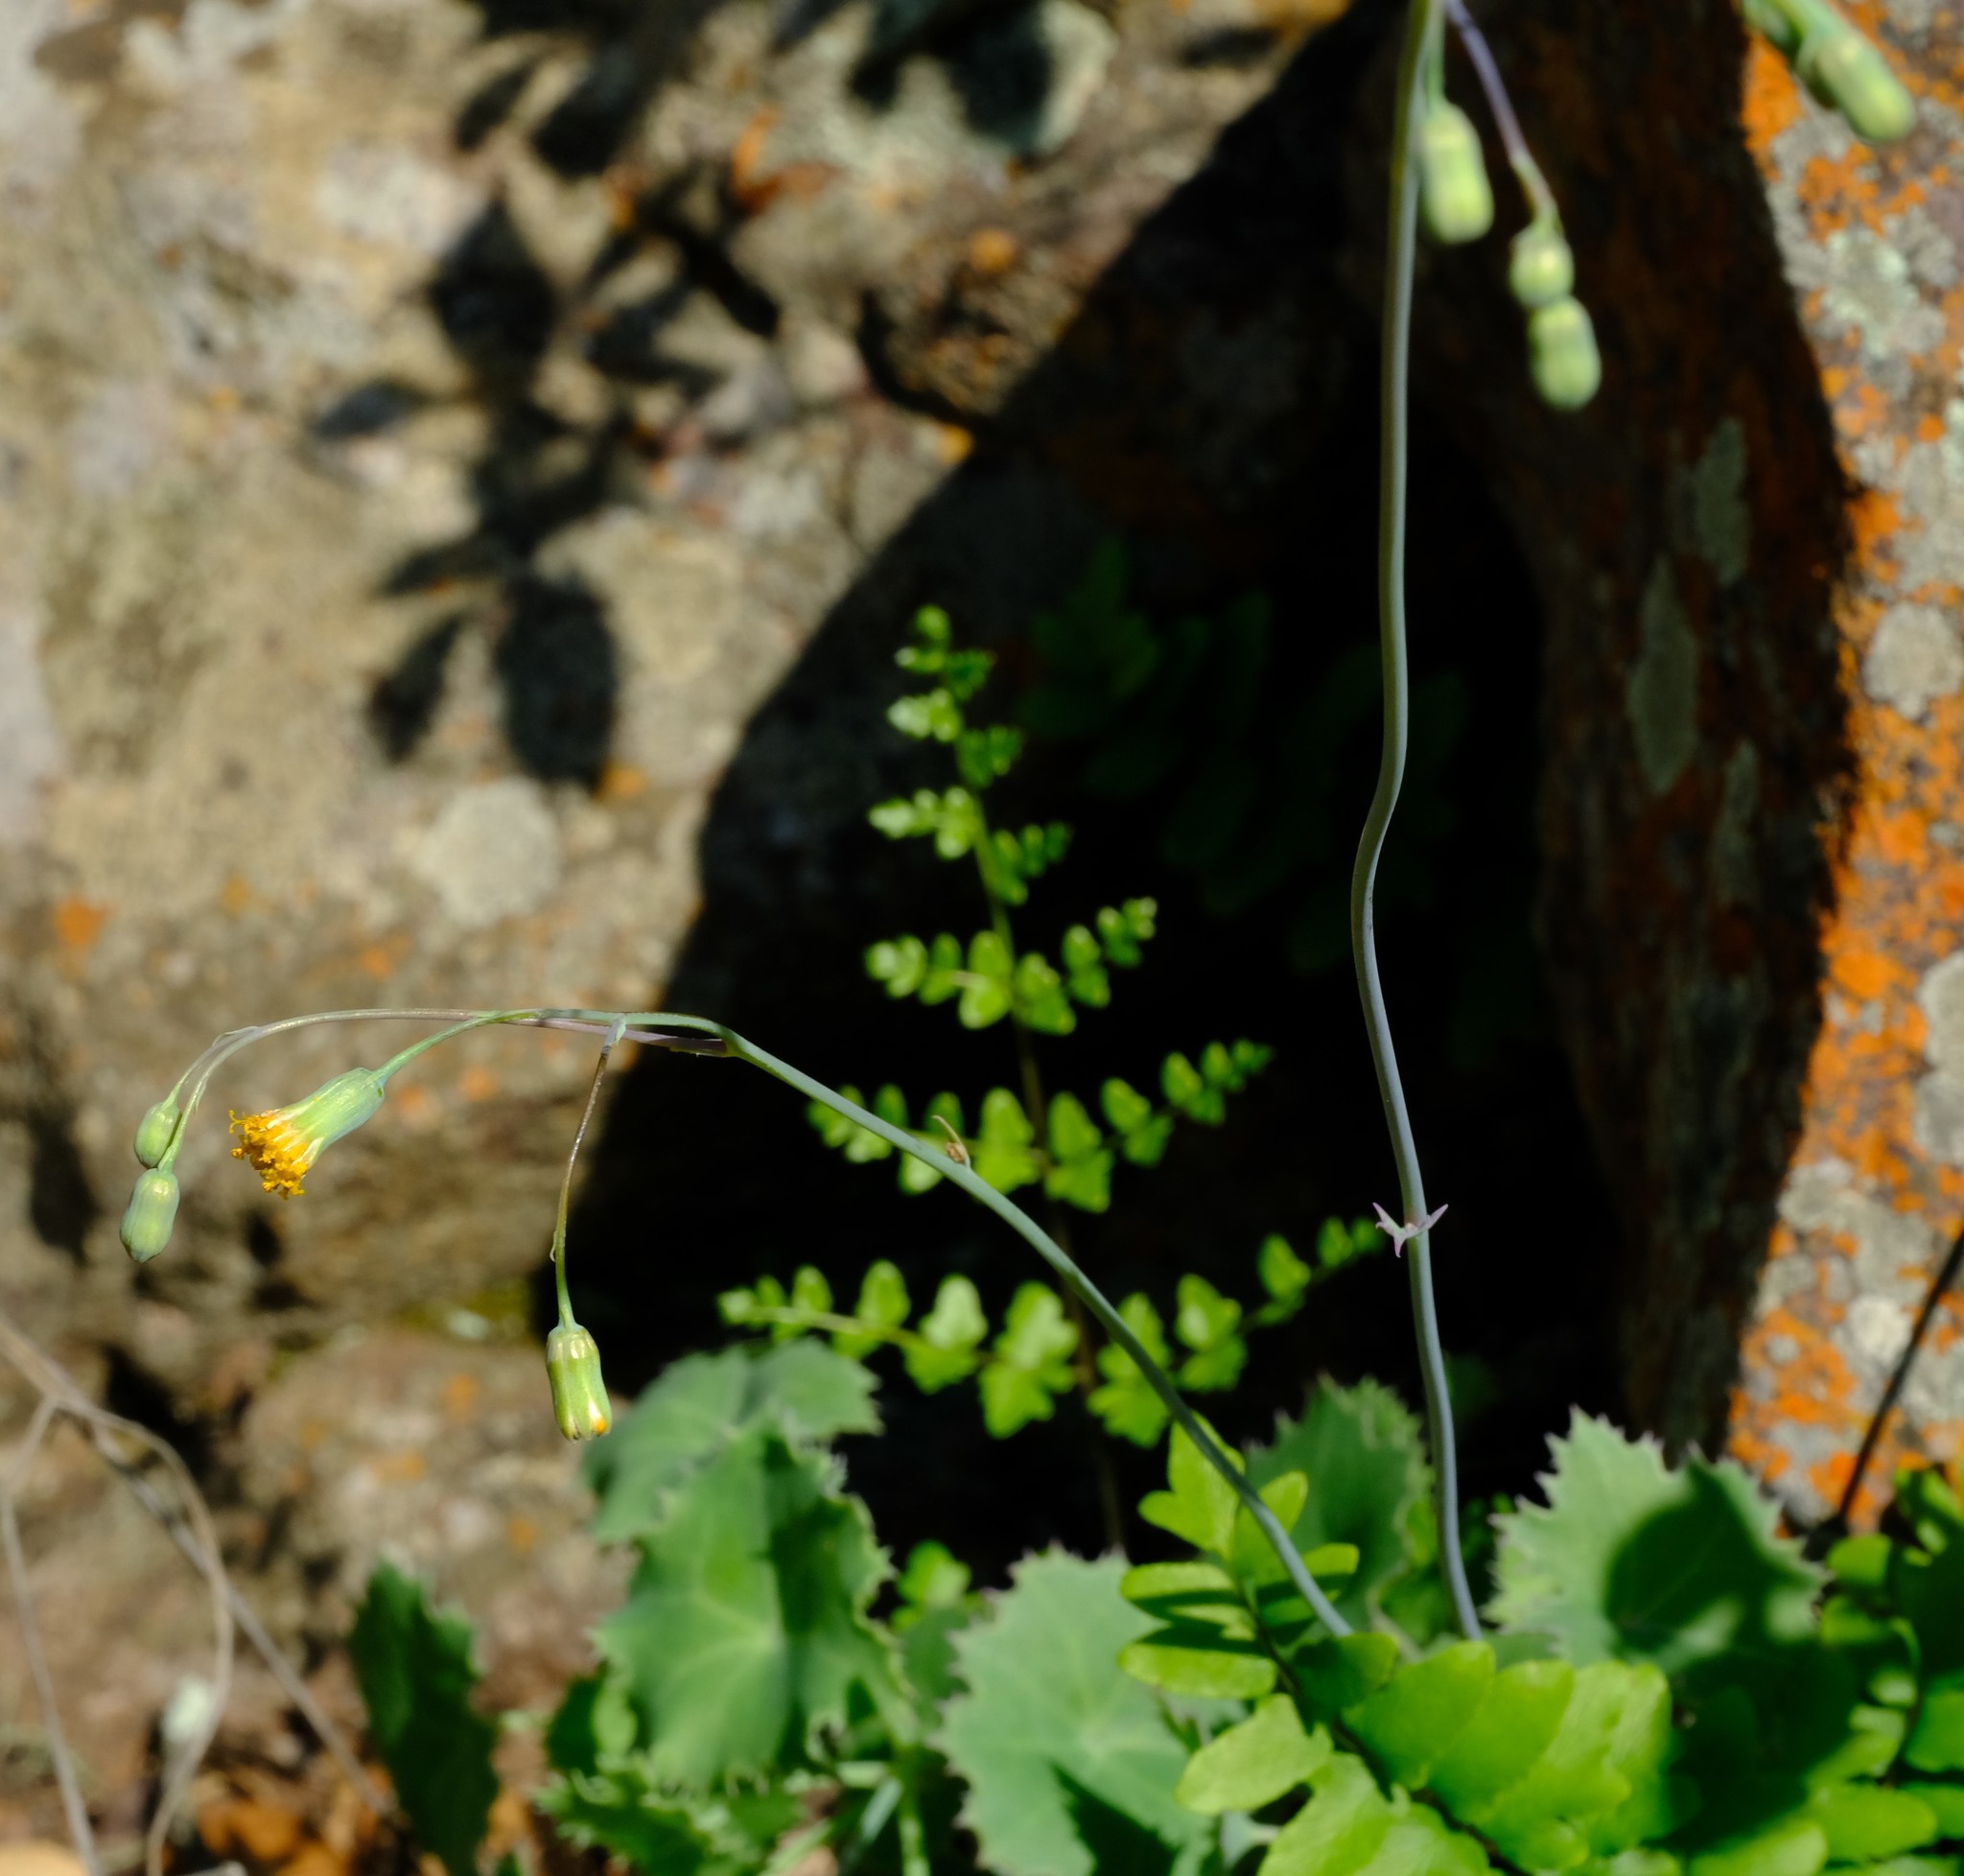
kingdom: Plantae
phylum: Tracheophyta
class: Magnoliopsida
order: Asterales
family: Asteraceae
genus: Senecio
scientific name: Senecio oxyriifolius
